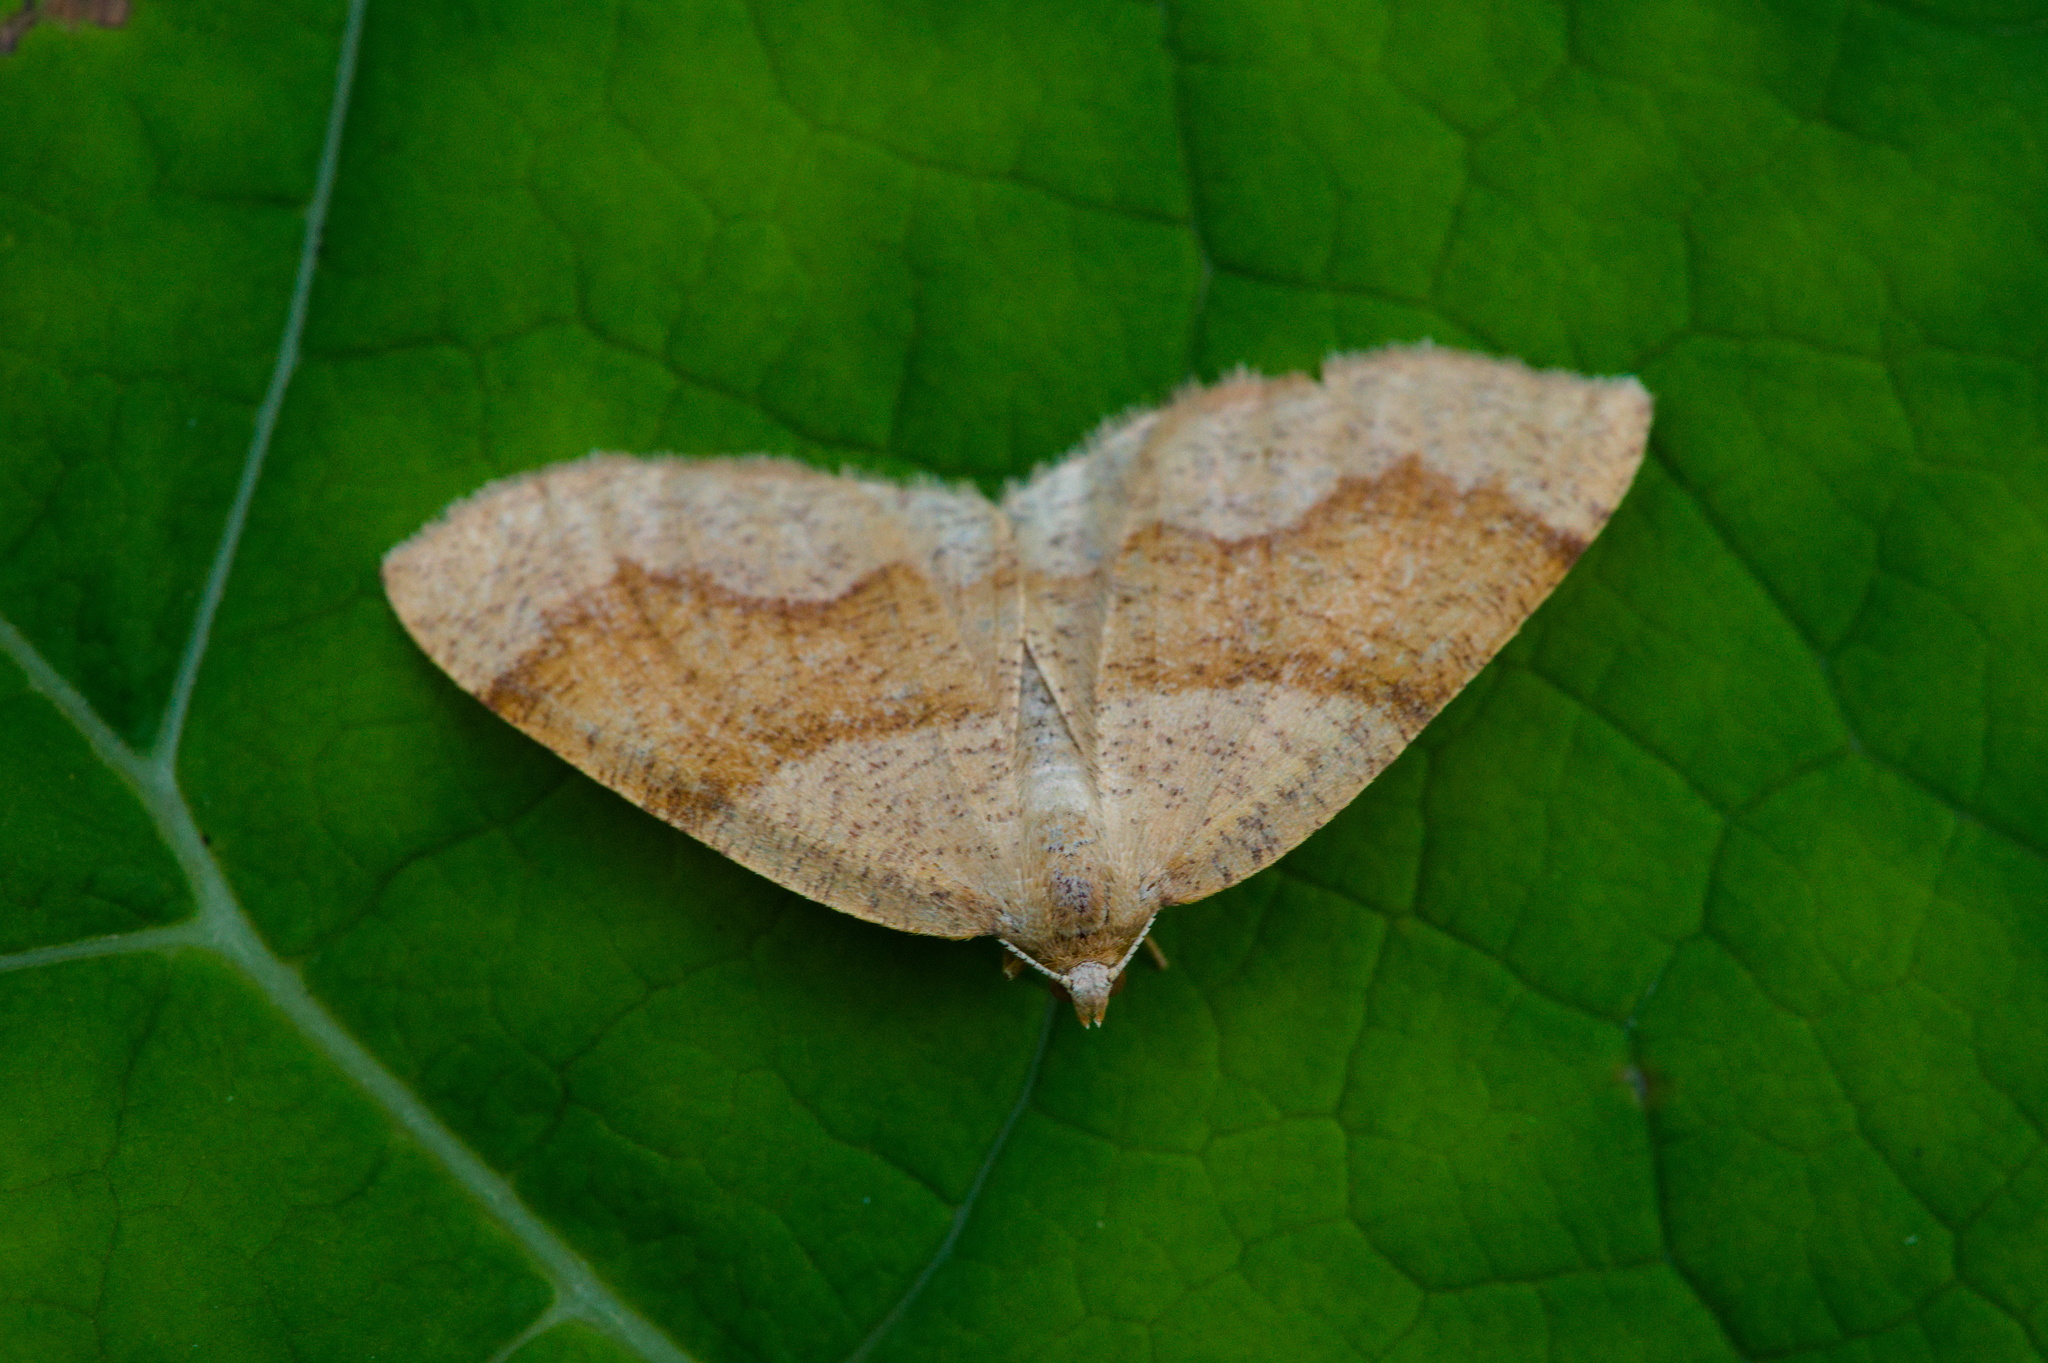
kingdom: Animalia
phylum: Arthropoda
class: Insecta
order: Lepidoptera
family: Geometridae
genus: Plagodis
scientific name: Plagodis pulveraria
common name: Barred umber
